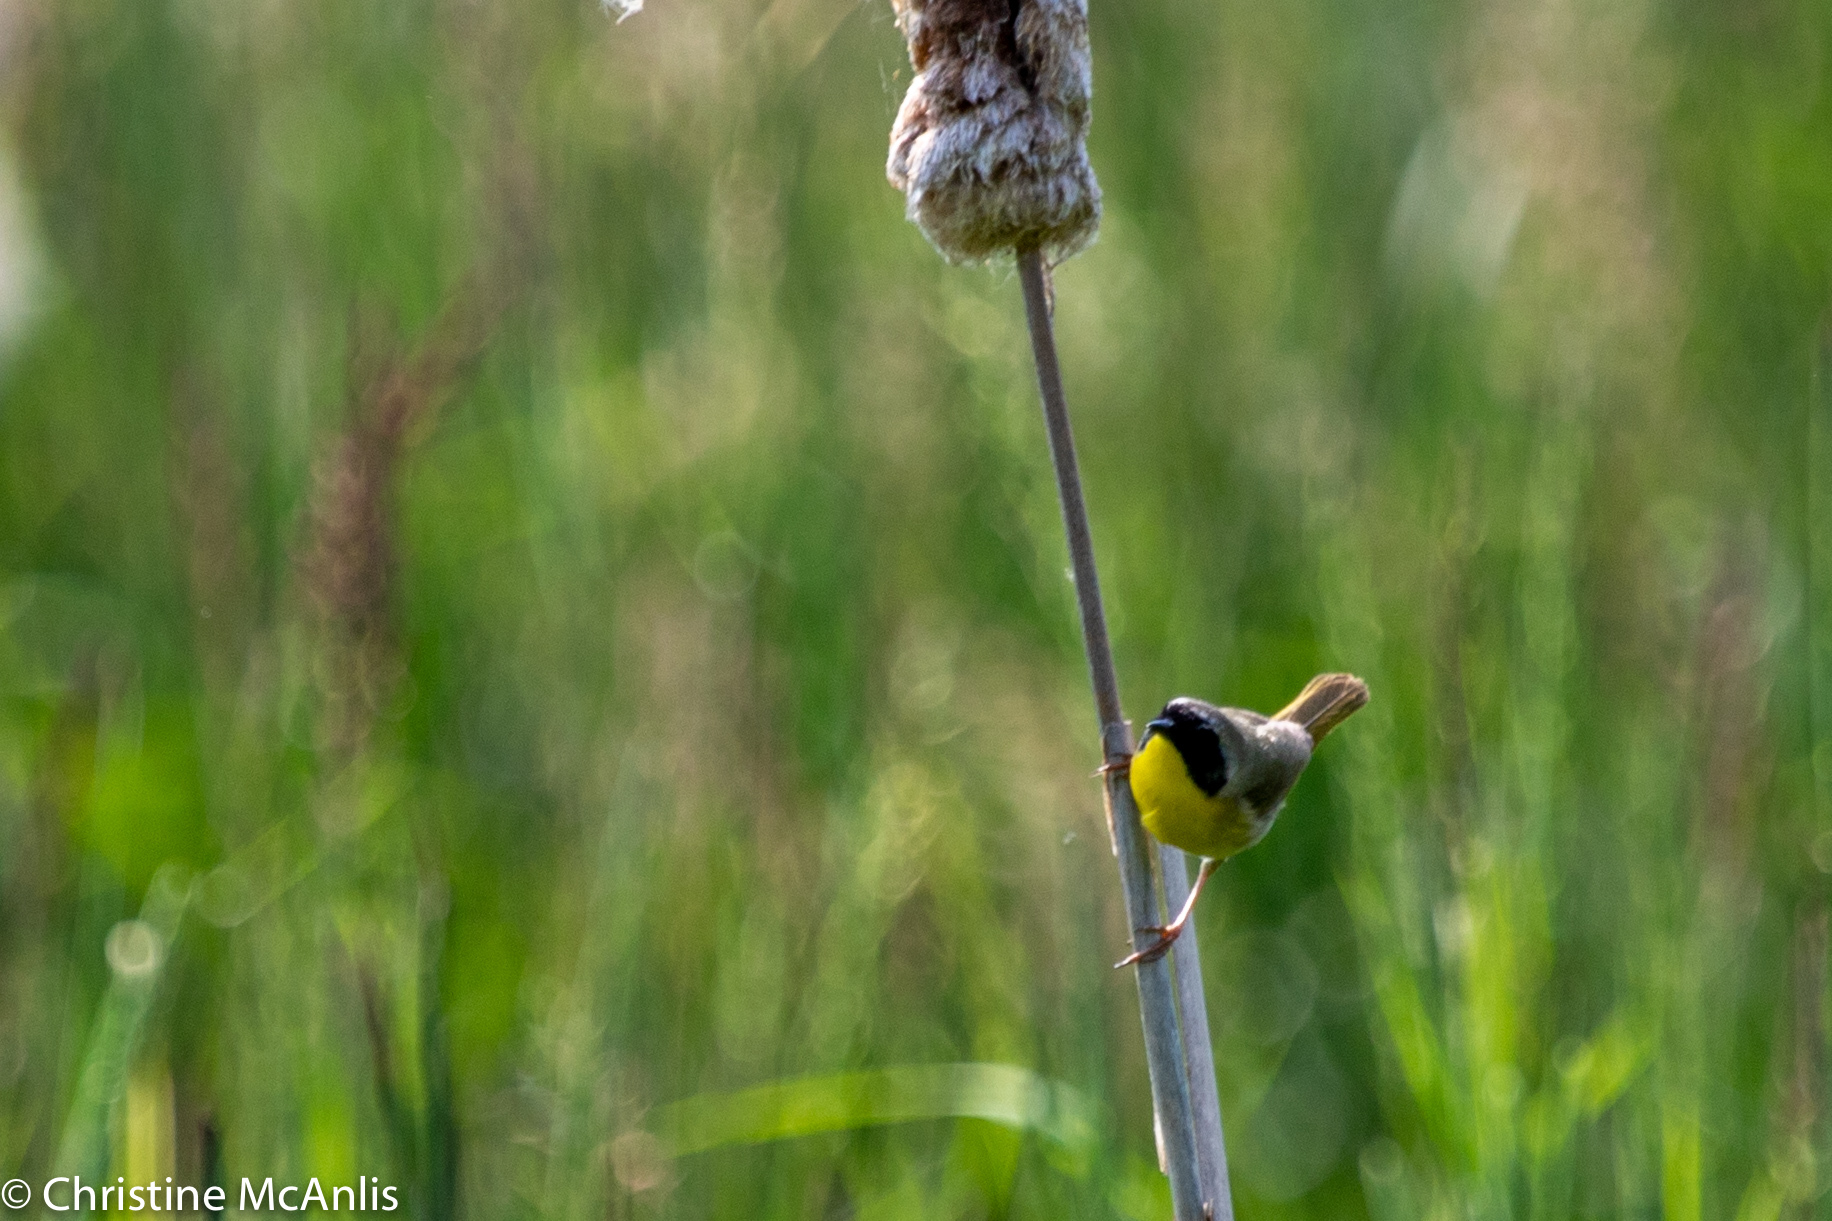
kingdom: Animalia
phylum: Chordata
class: Aves
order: Passeriformes
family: Parulidae
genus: Geothlypis
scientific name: Geothlypis trichas
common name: Common yellowthroat
